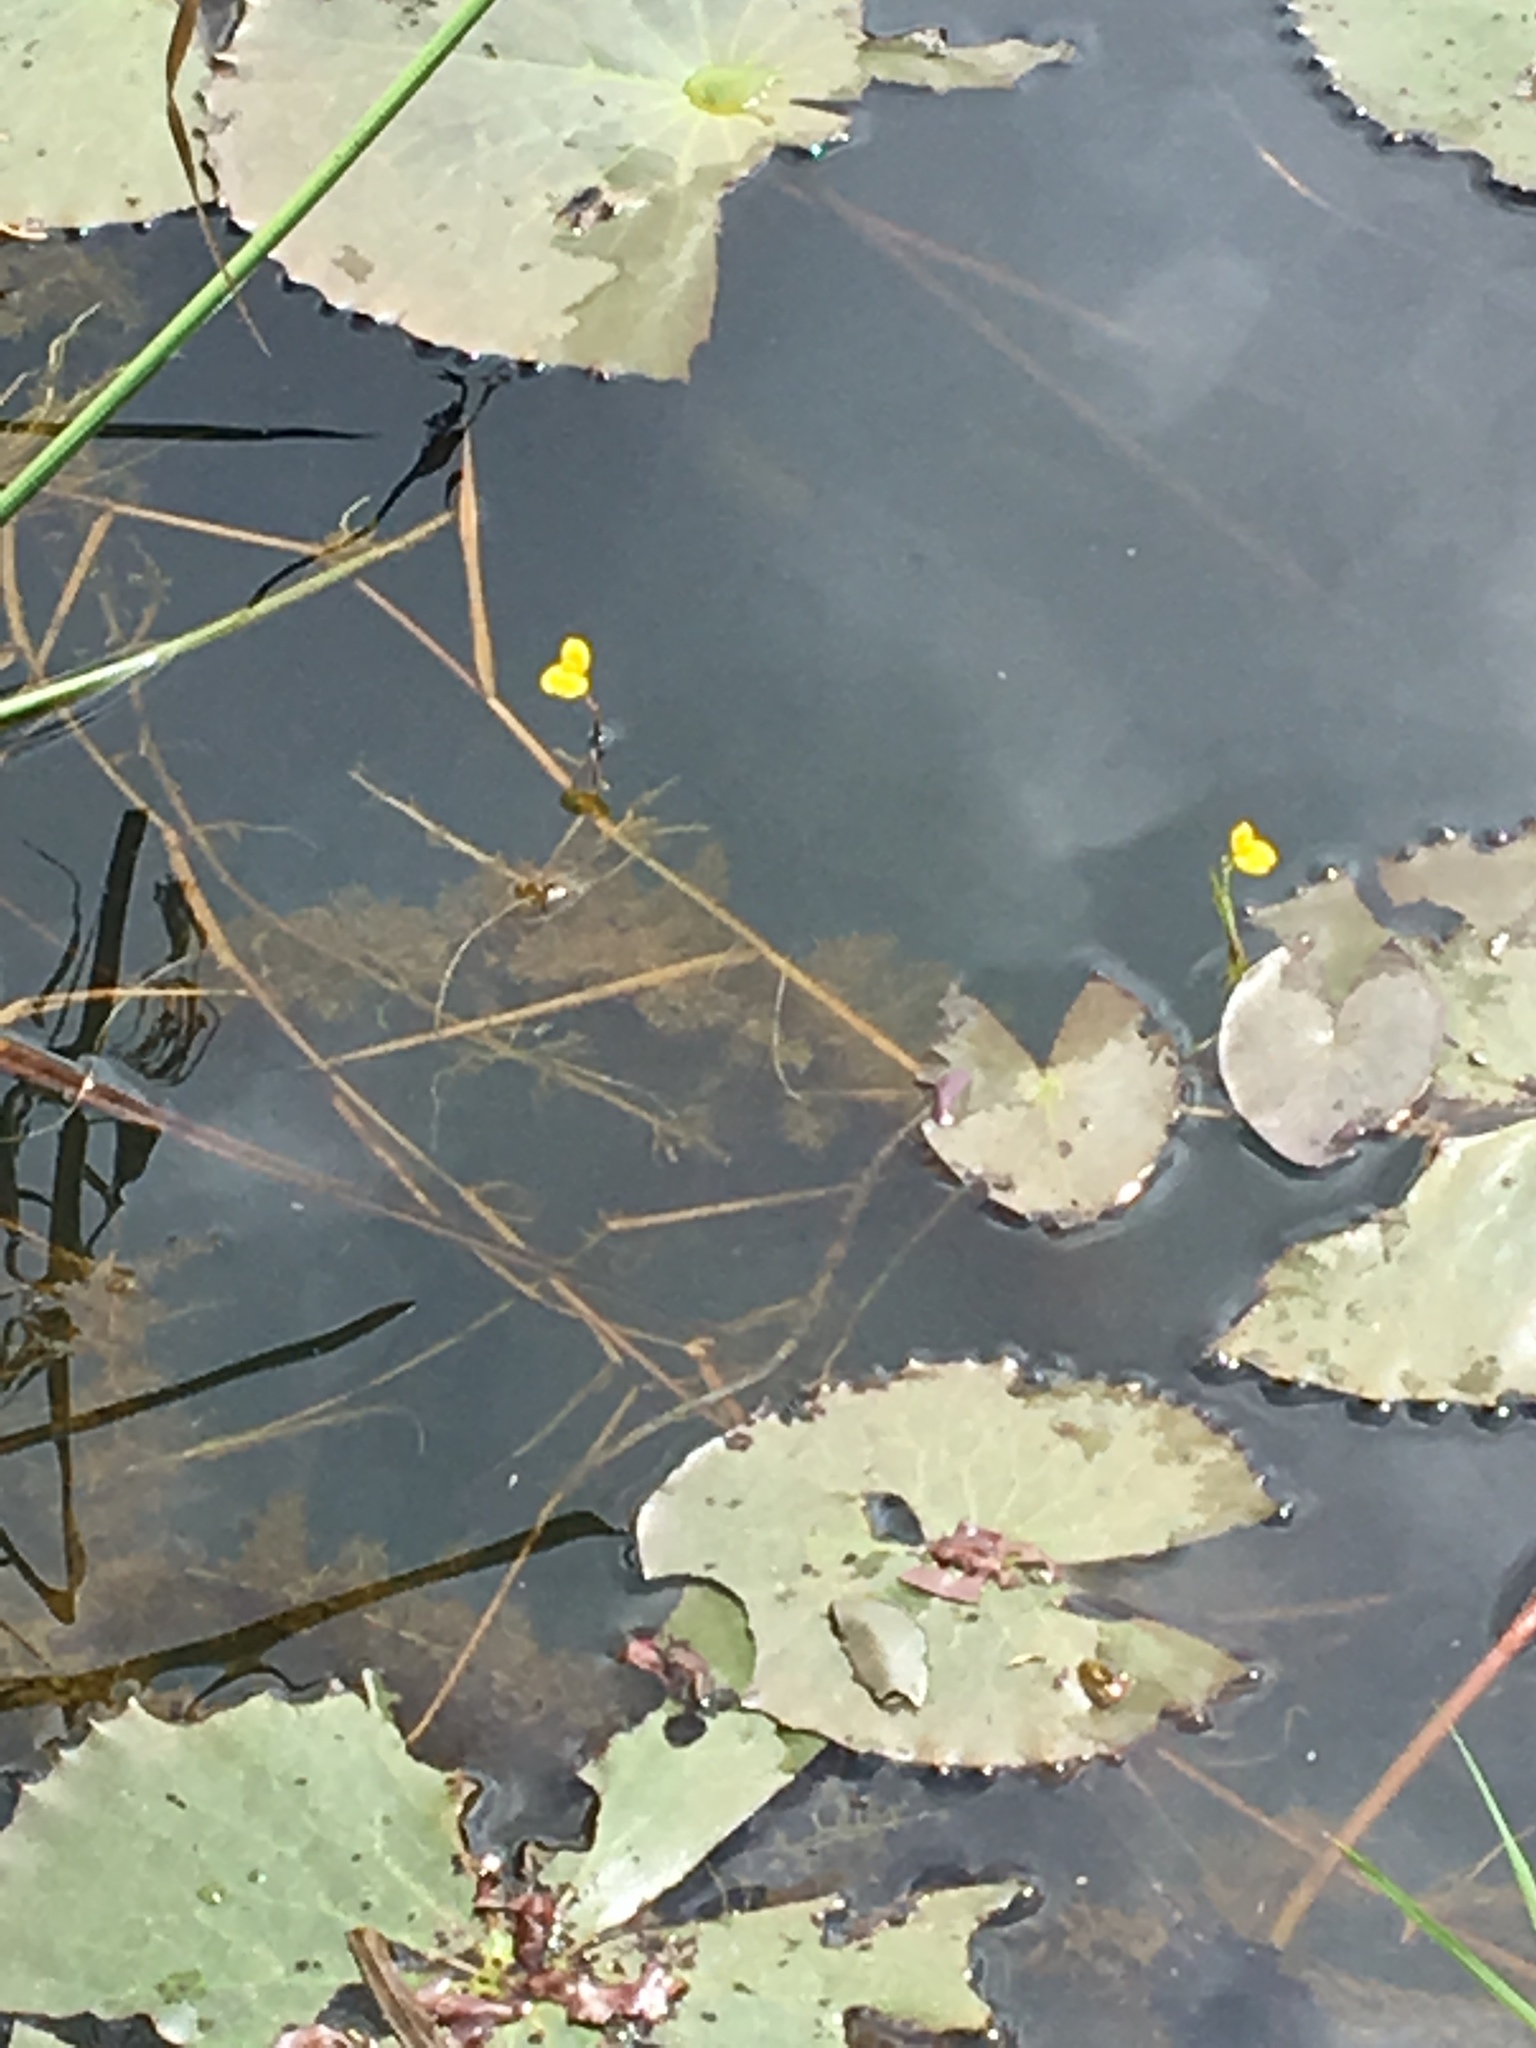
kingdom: Plantae
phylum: Tracheophyta
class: Magnoliopsida
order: Lamiales
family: Lentibulariaceae
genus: Utricularia
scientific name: Utricularia aurea
